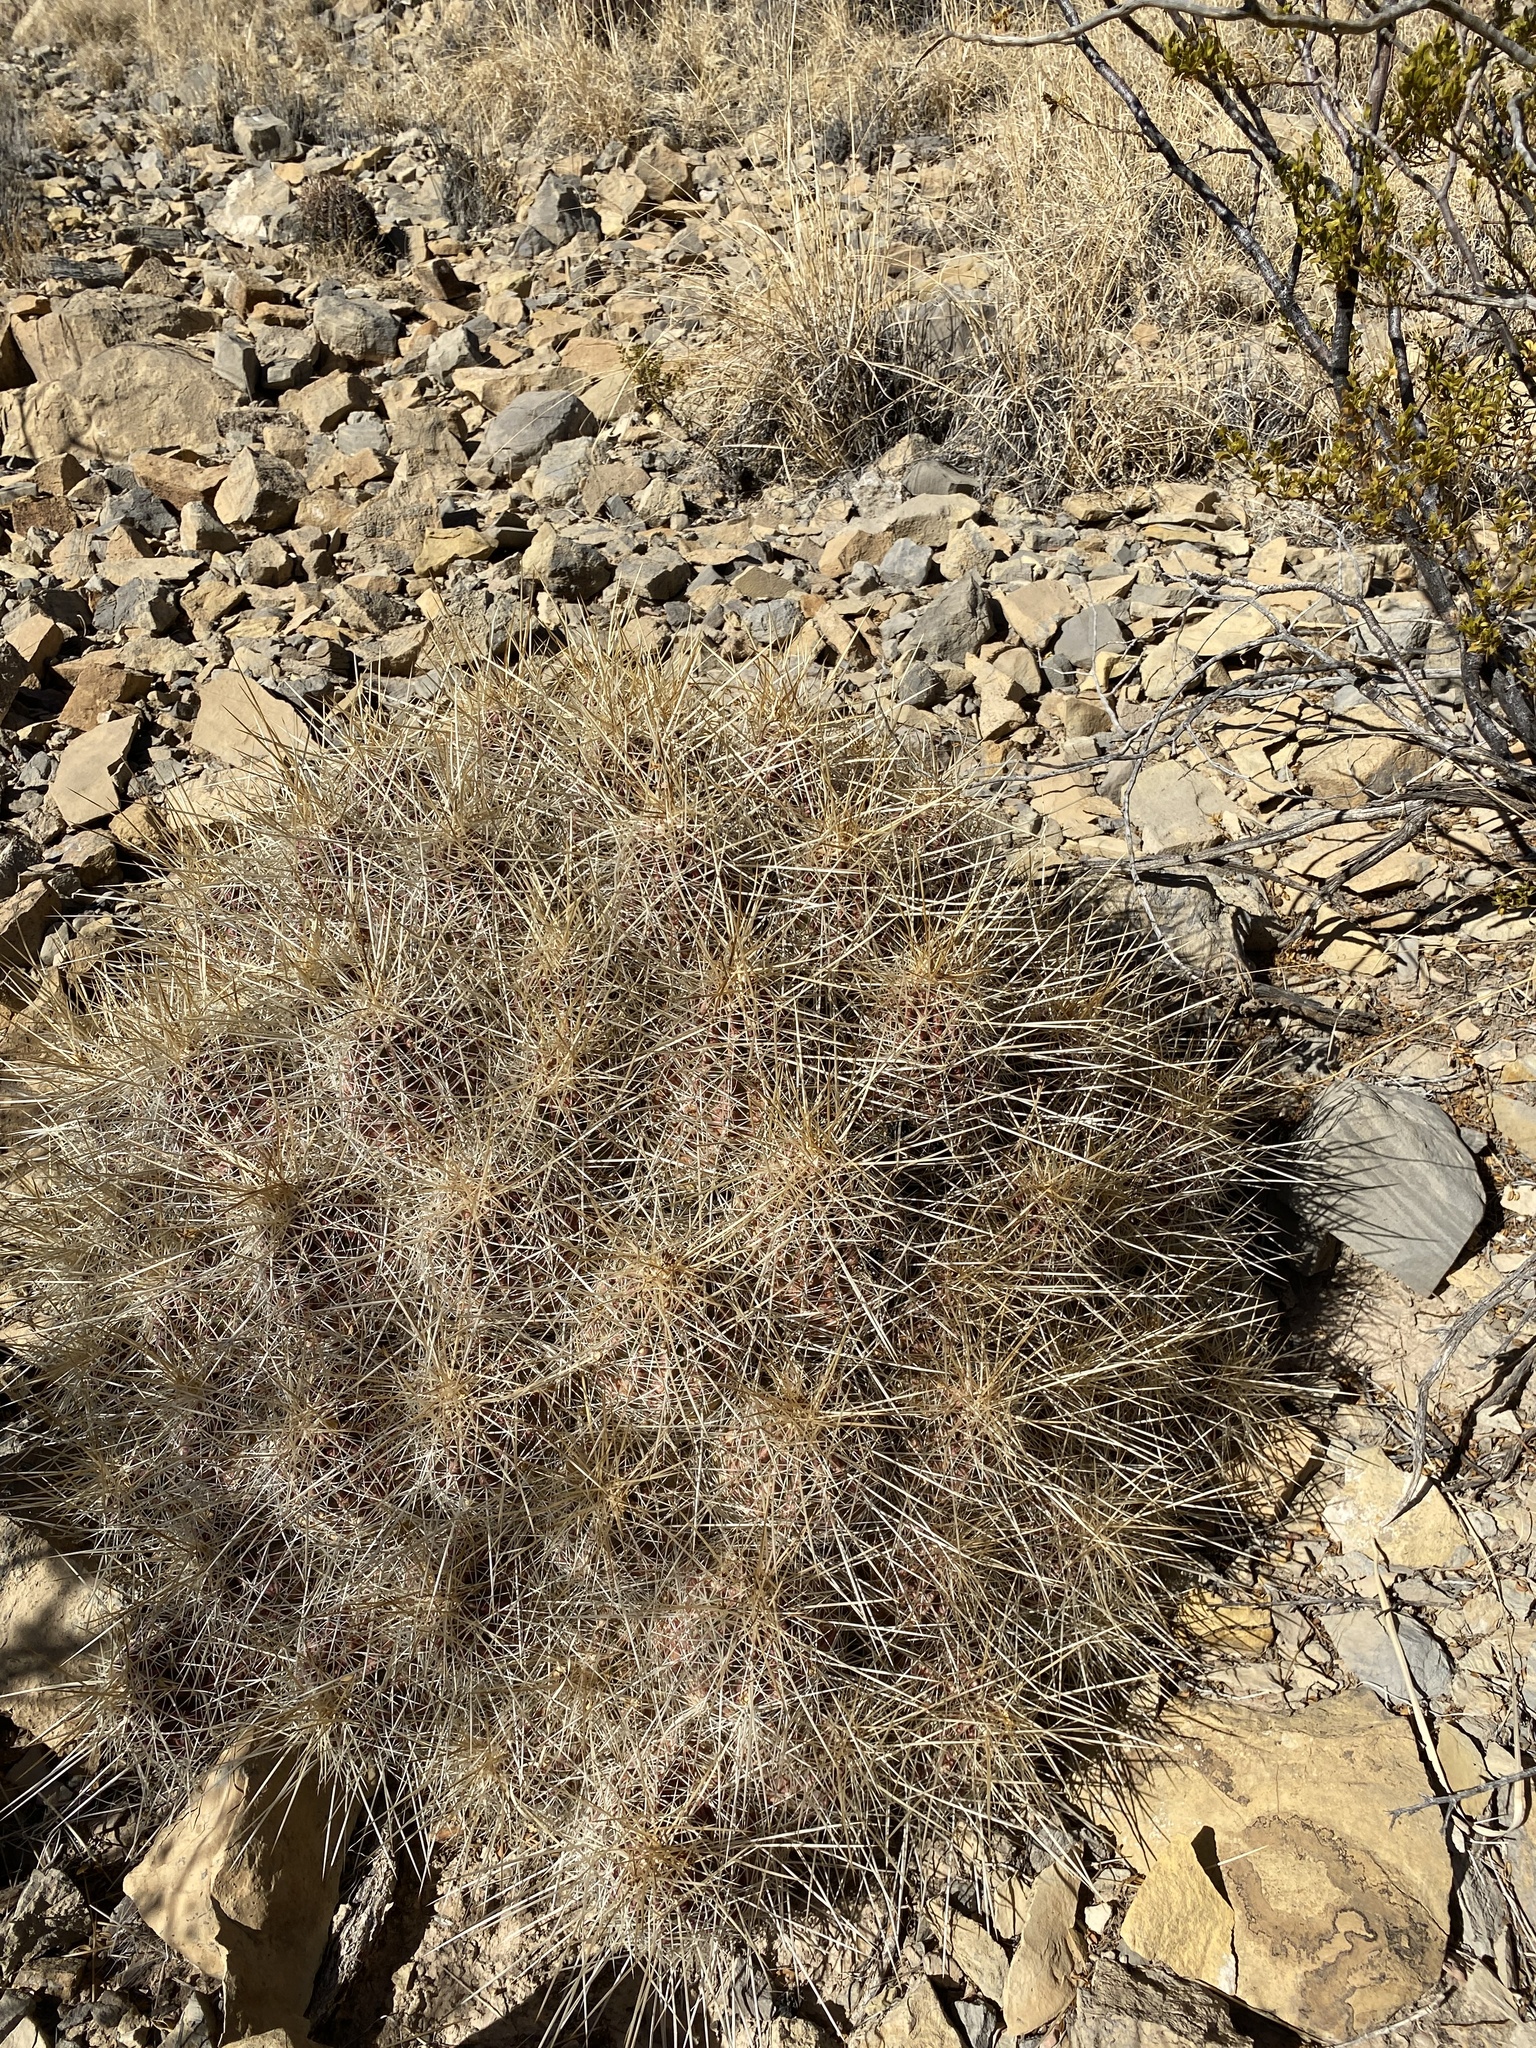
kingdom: Plantae
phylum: Tracheophyta
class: Magnoliopsida
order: Caryophyllales
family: Cactaceae
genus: Echinocereus
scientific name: Echinocereus stramineus
